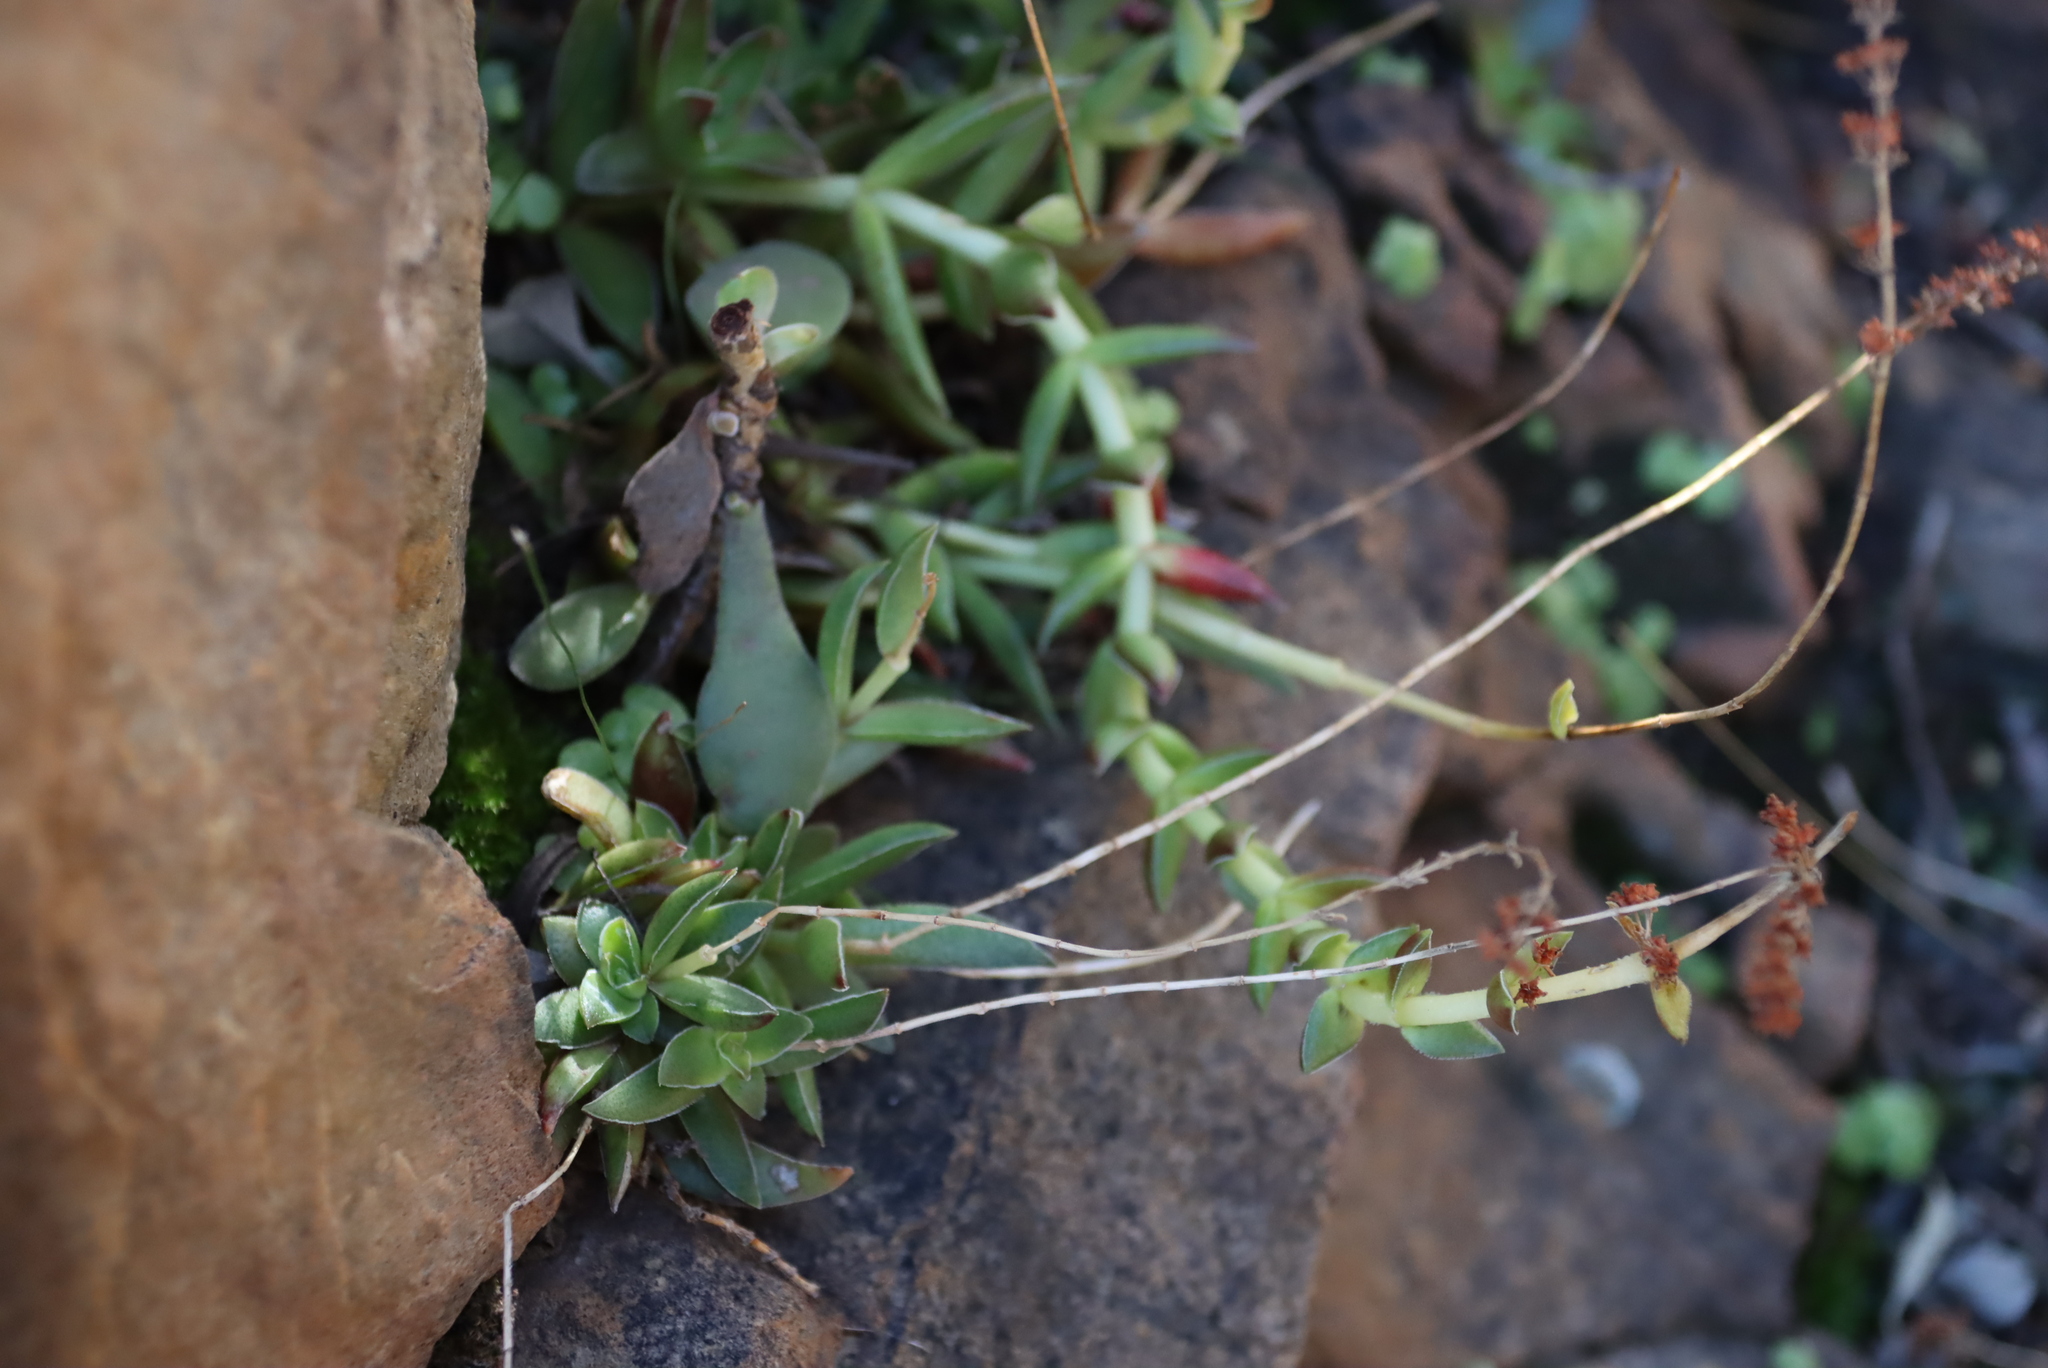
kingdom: Plantae
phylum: Tracheophyta
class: Magnoliopsida
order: Saxifragales
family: Crassulaceae
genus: Crassula
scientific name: Crassula capitella
